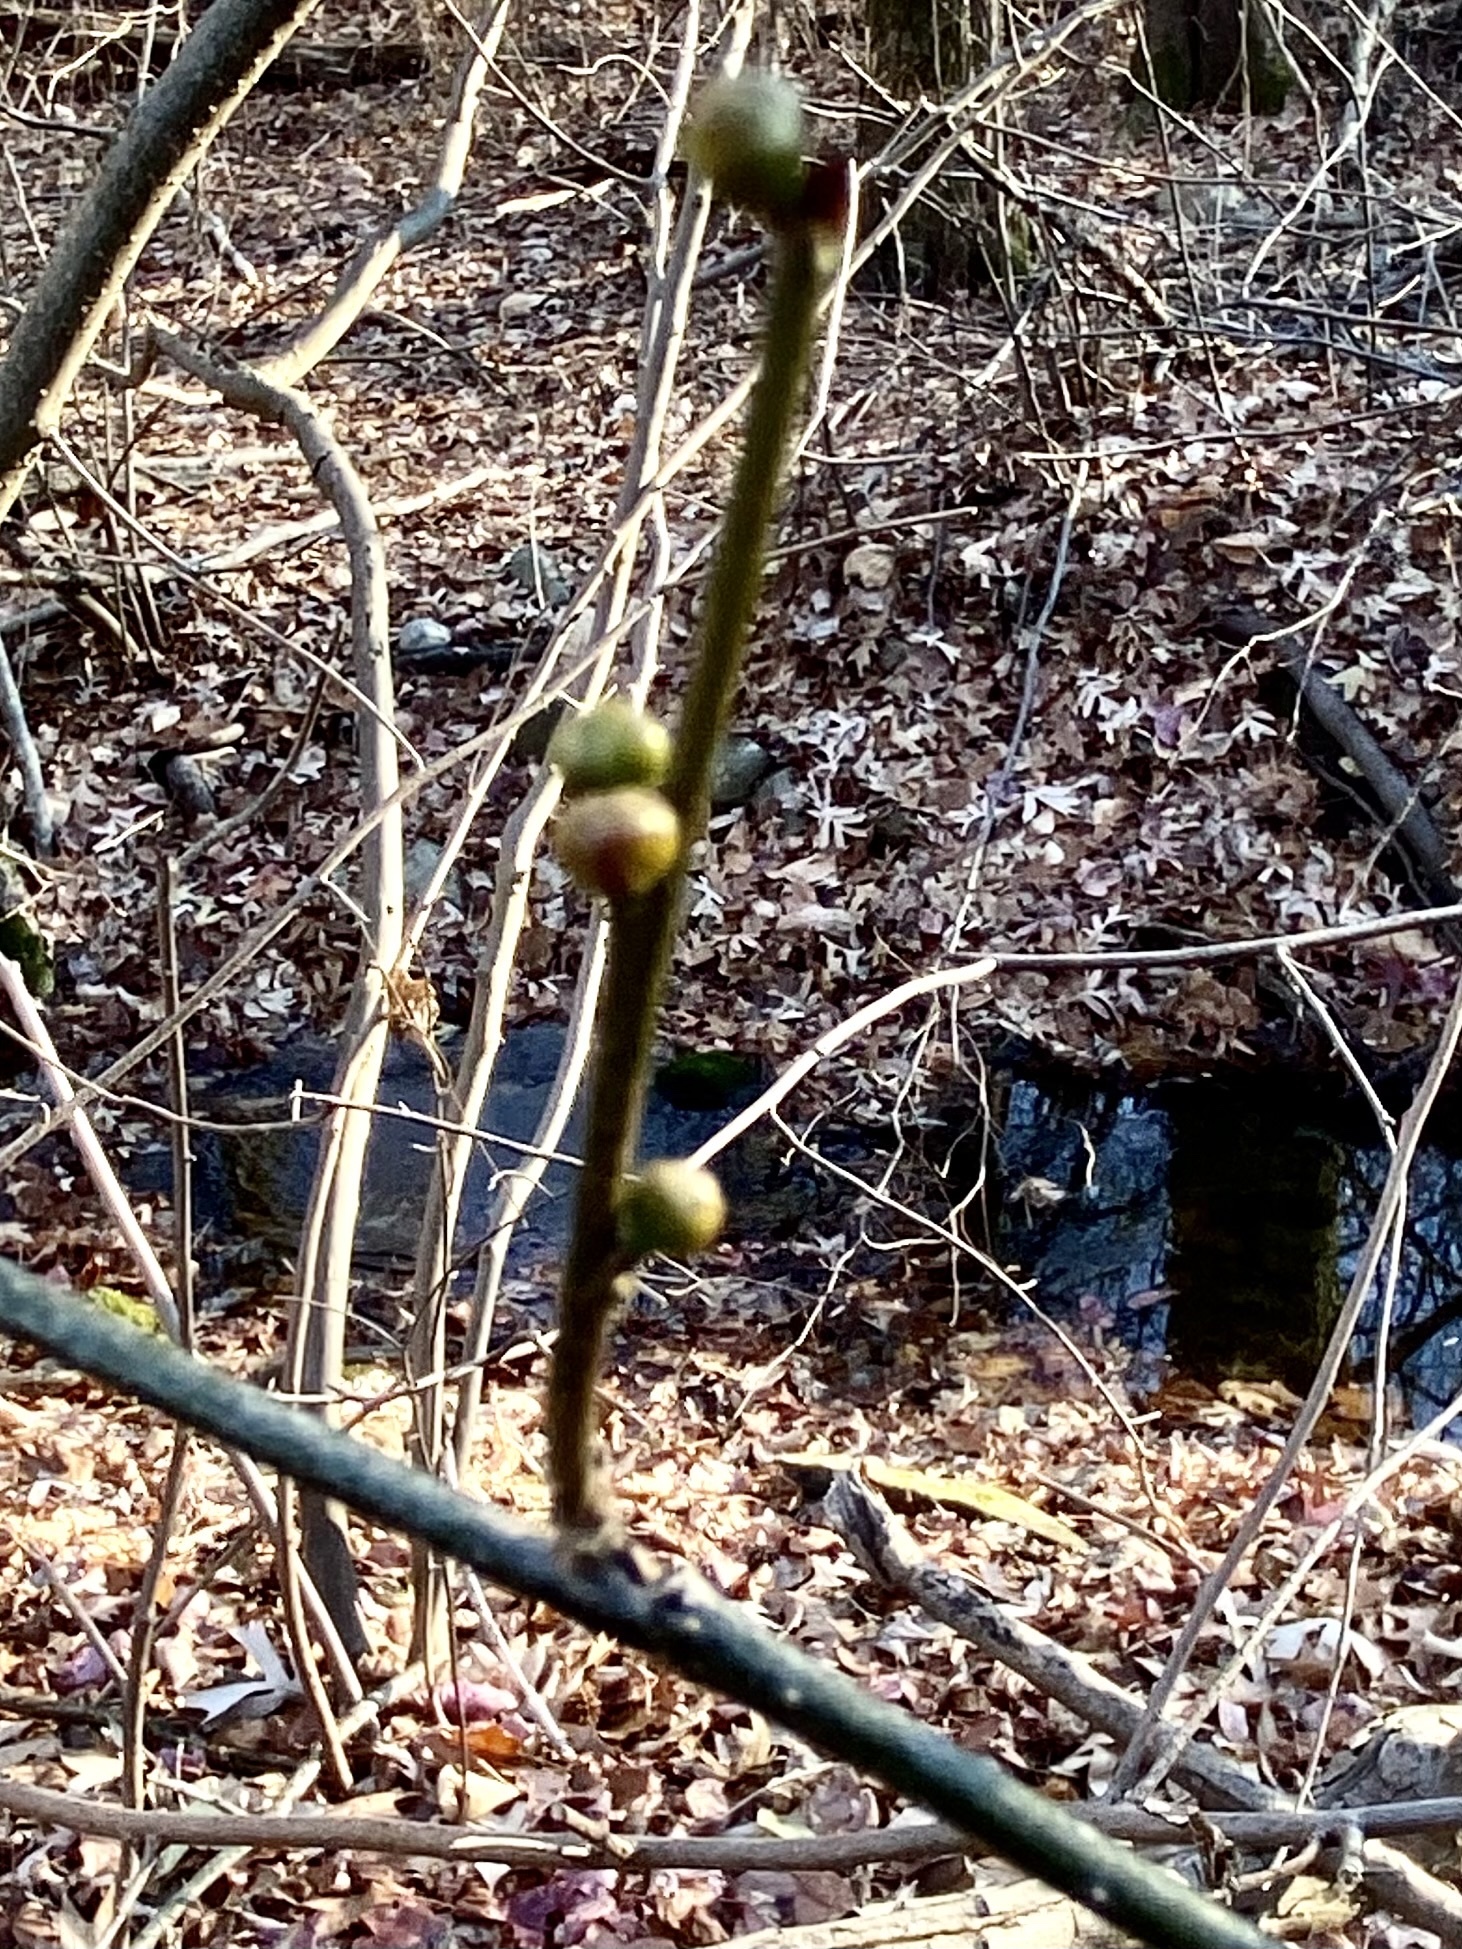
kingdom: Plantae
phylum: Tracheophyta
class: Magnoliopsida
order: Laurales
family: Lauraceae
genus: Lindera
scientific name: Lindera benzoin
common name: Spicebush
